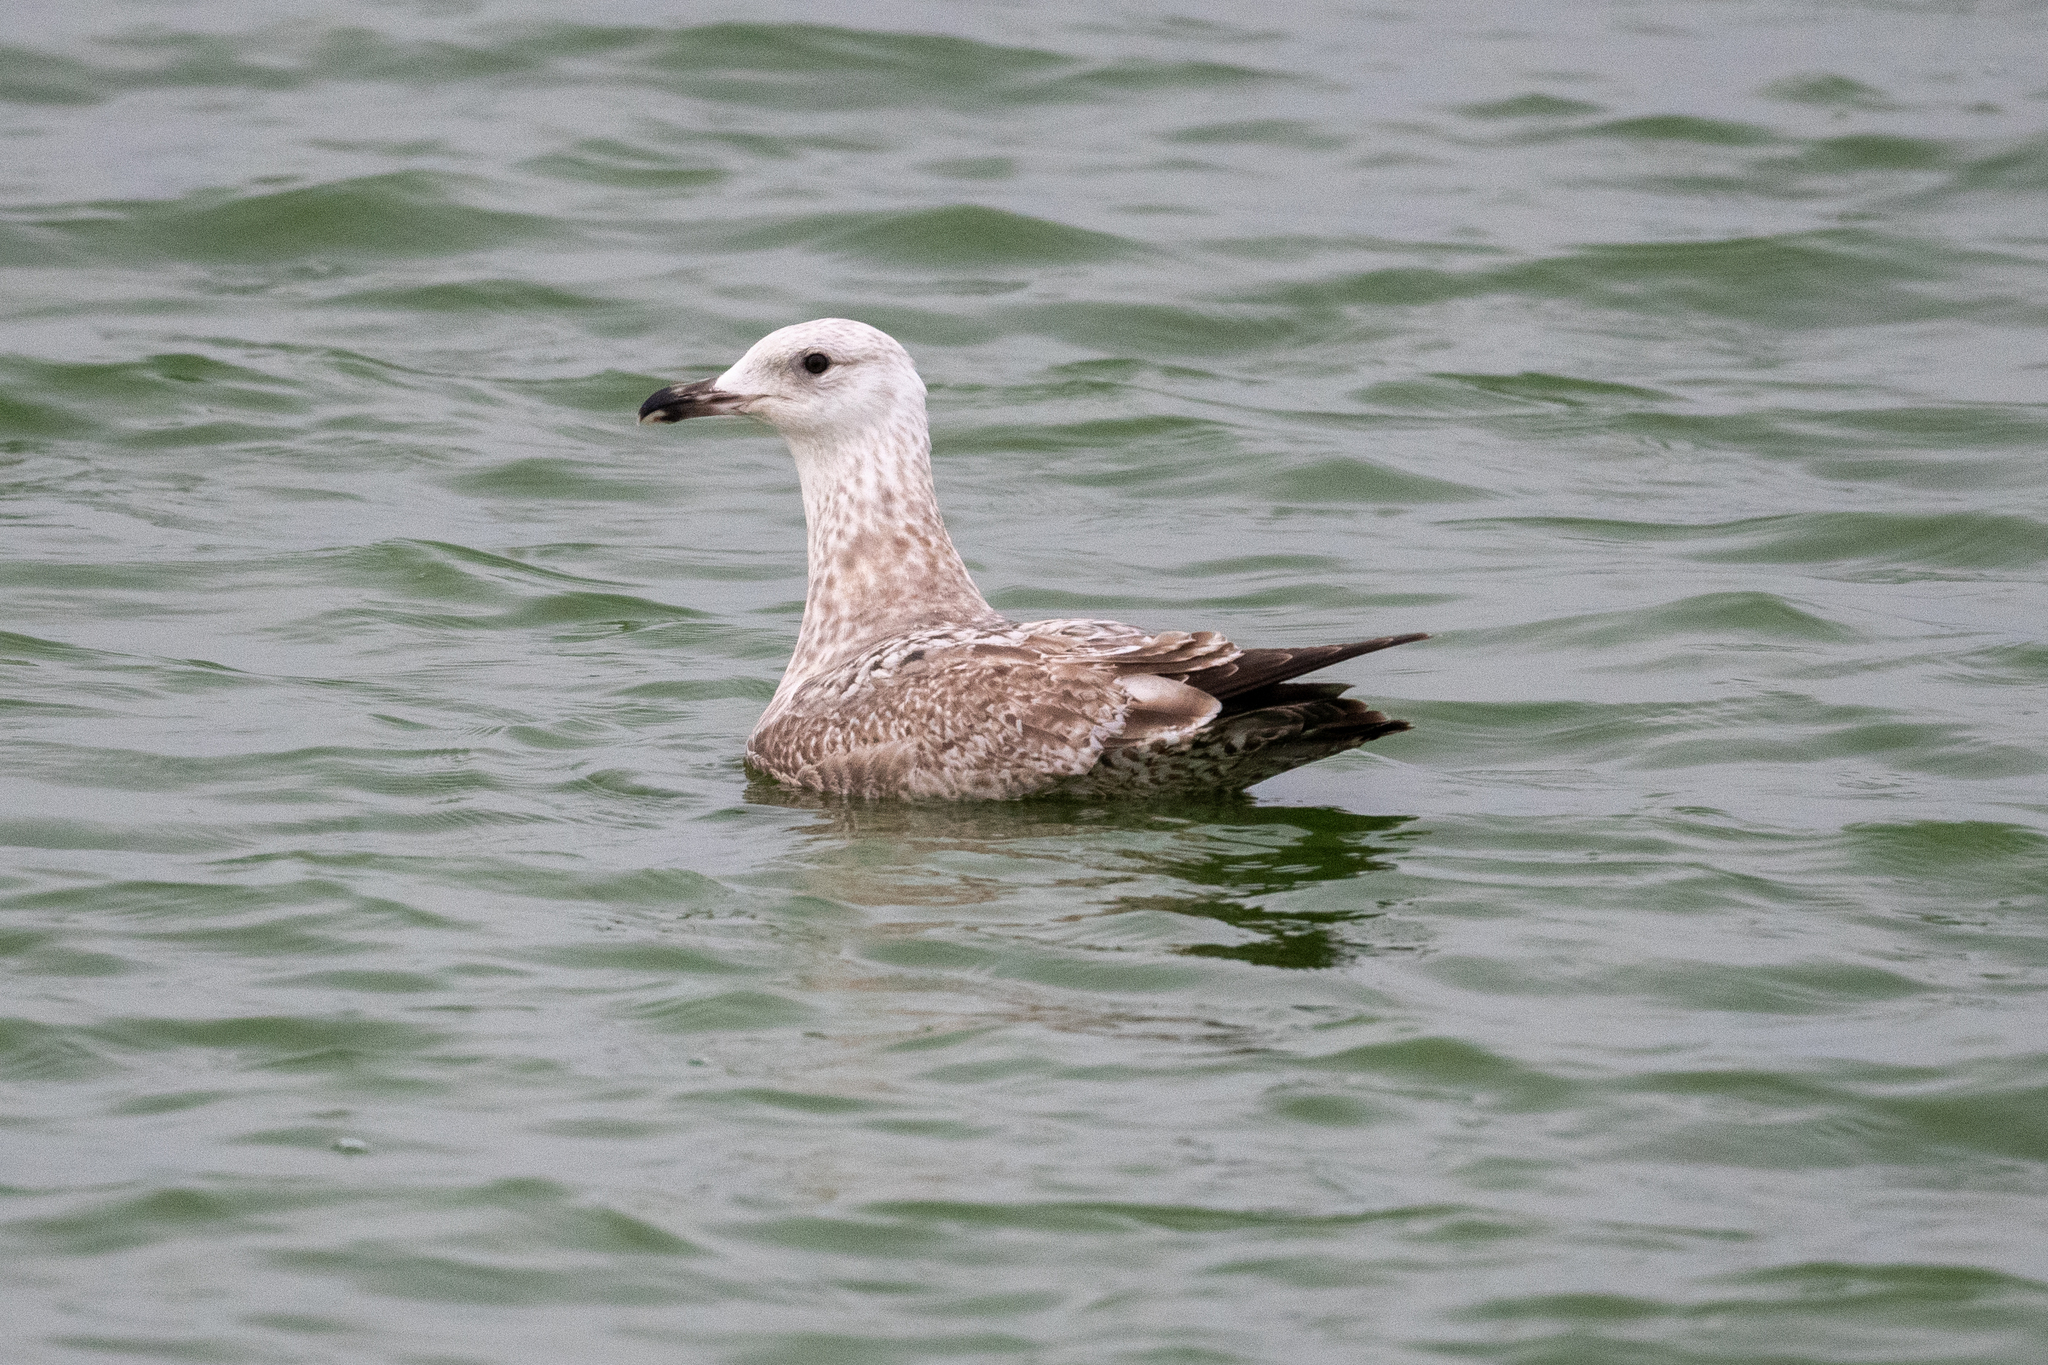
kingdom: Animalia
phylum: Chordata
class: Aves
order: Charadriiformes
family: Laridae
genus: Larus
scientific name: Larus argentatus
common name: Herring gull
